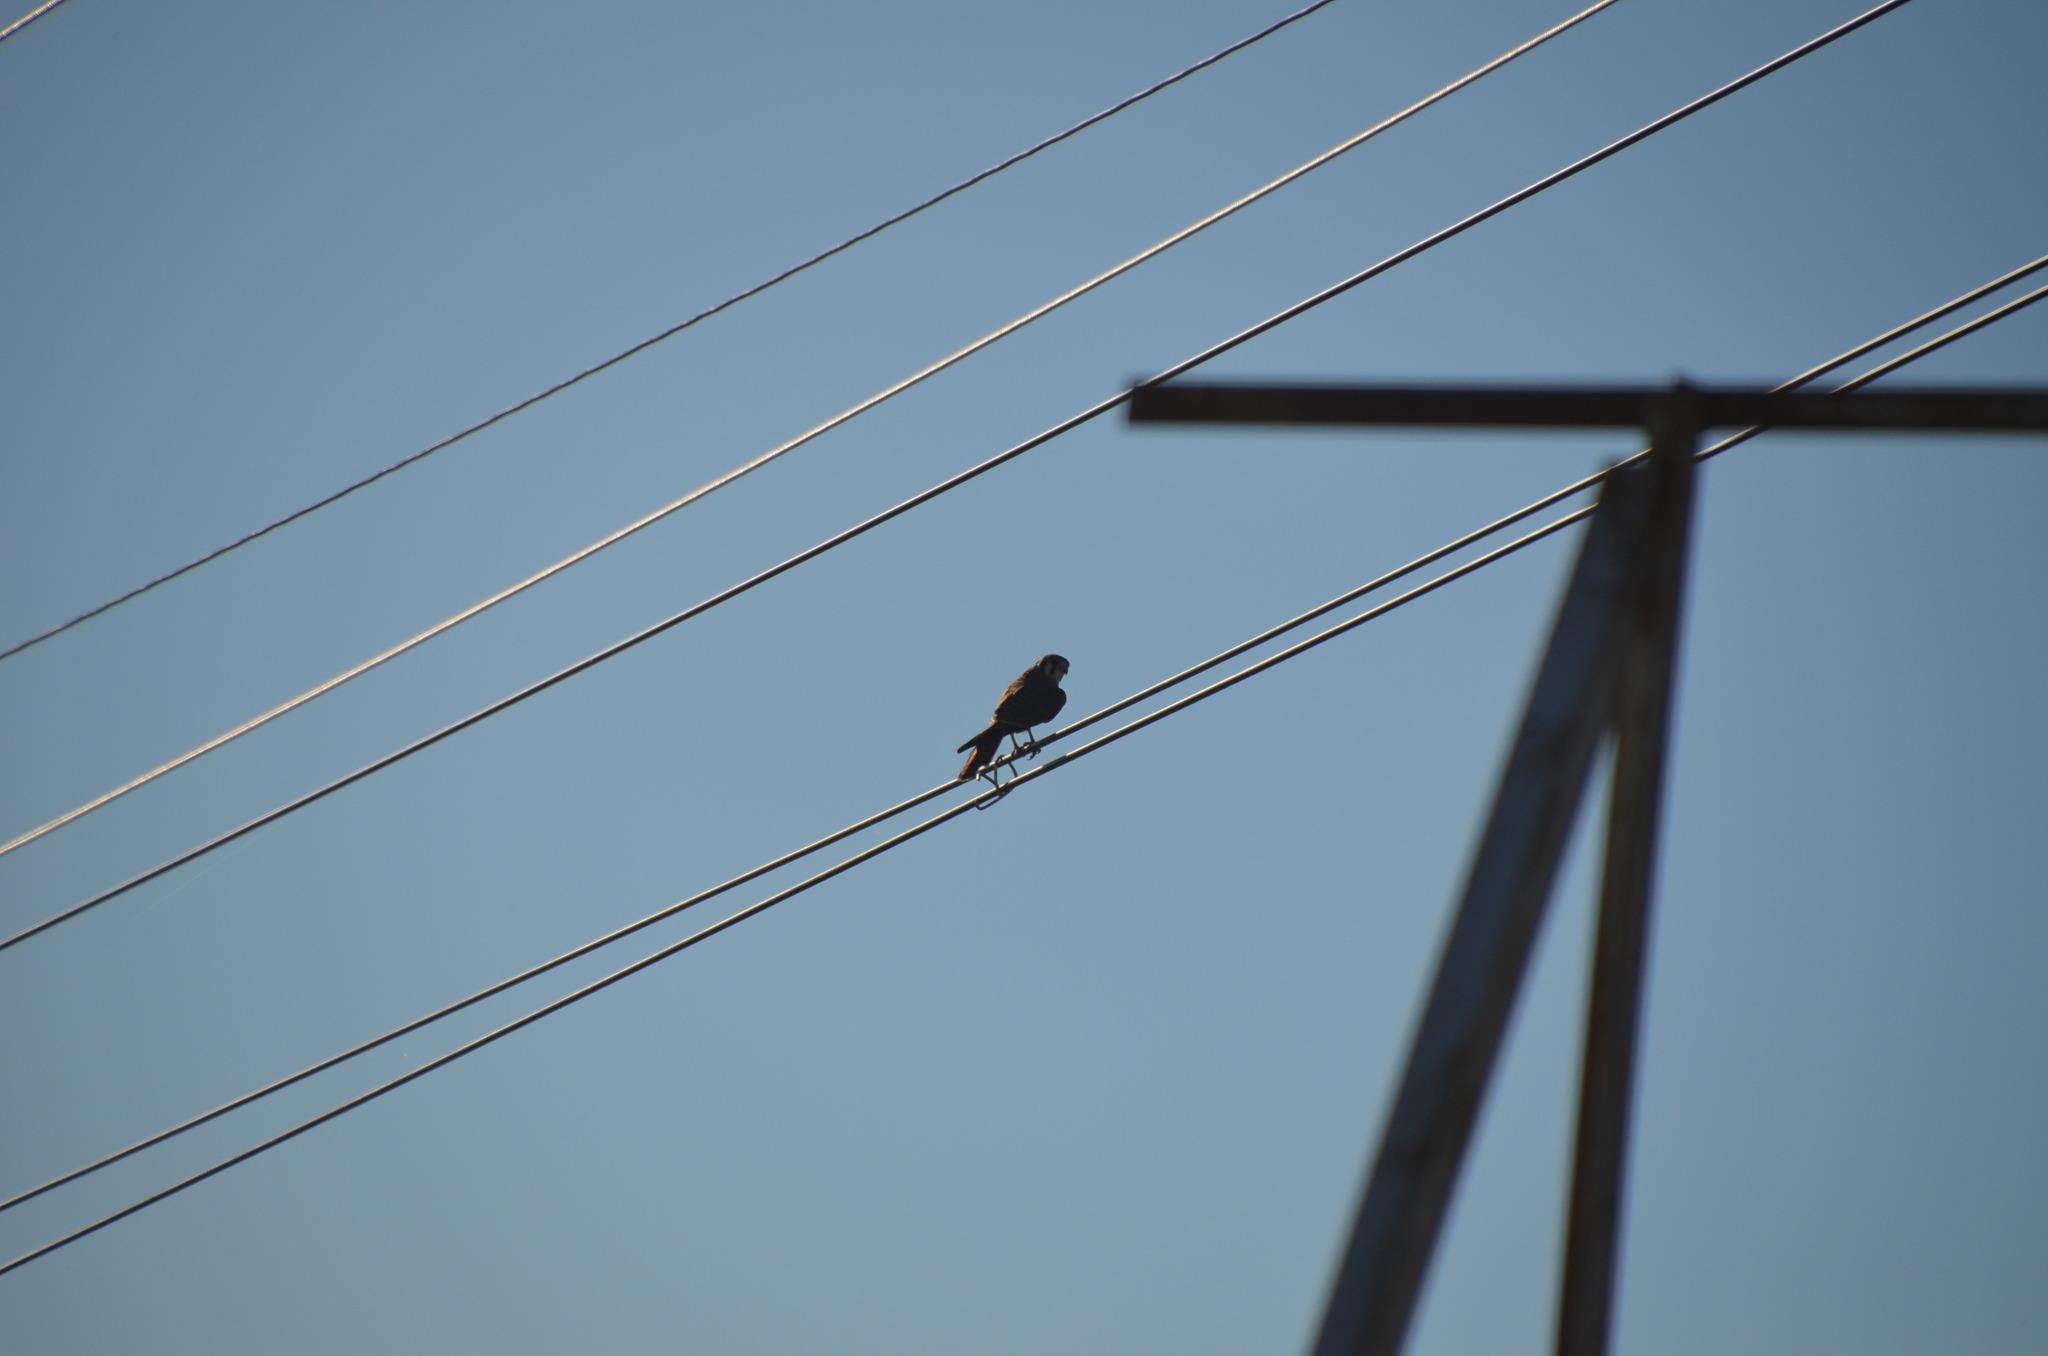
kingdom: Animalia
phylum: Chordata
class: Aves
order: Falconiformes
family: Falconidae
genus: Falco
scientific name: Falco sparverius
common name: American kestrel
